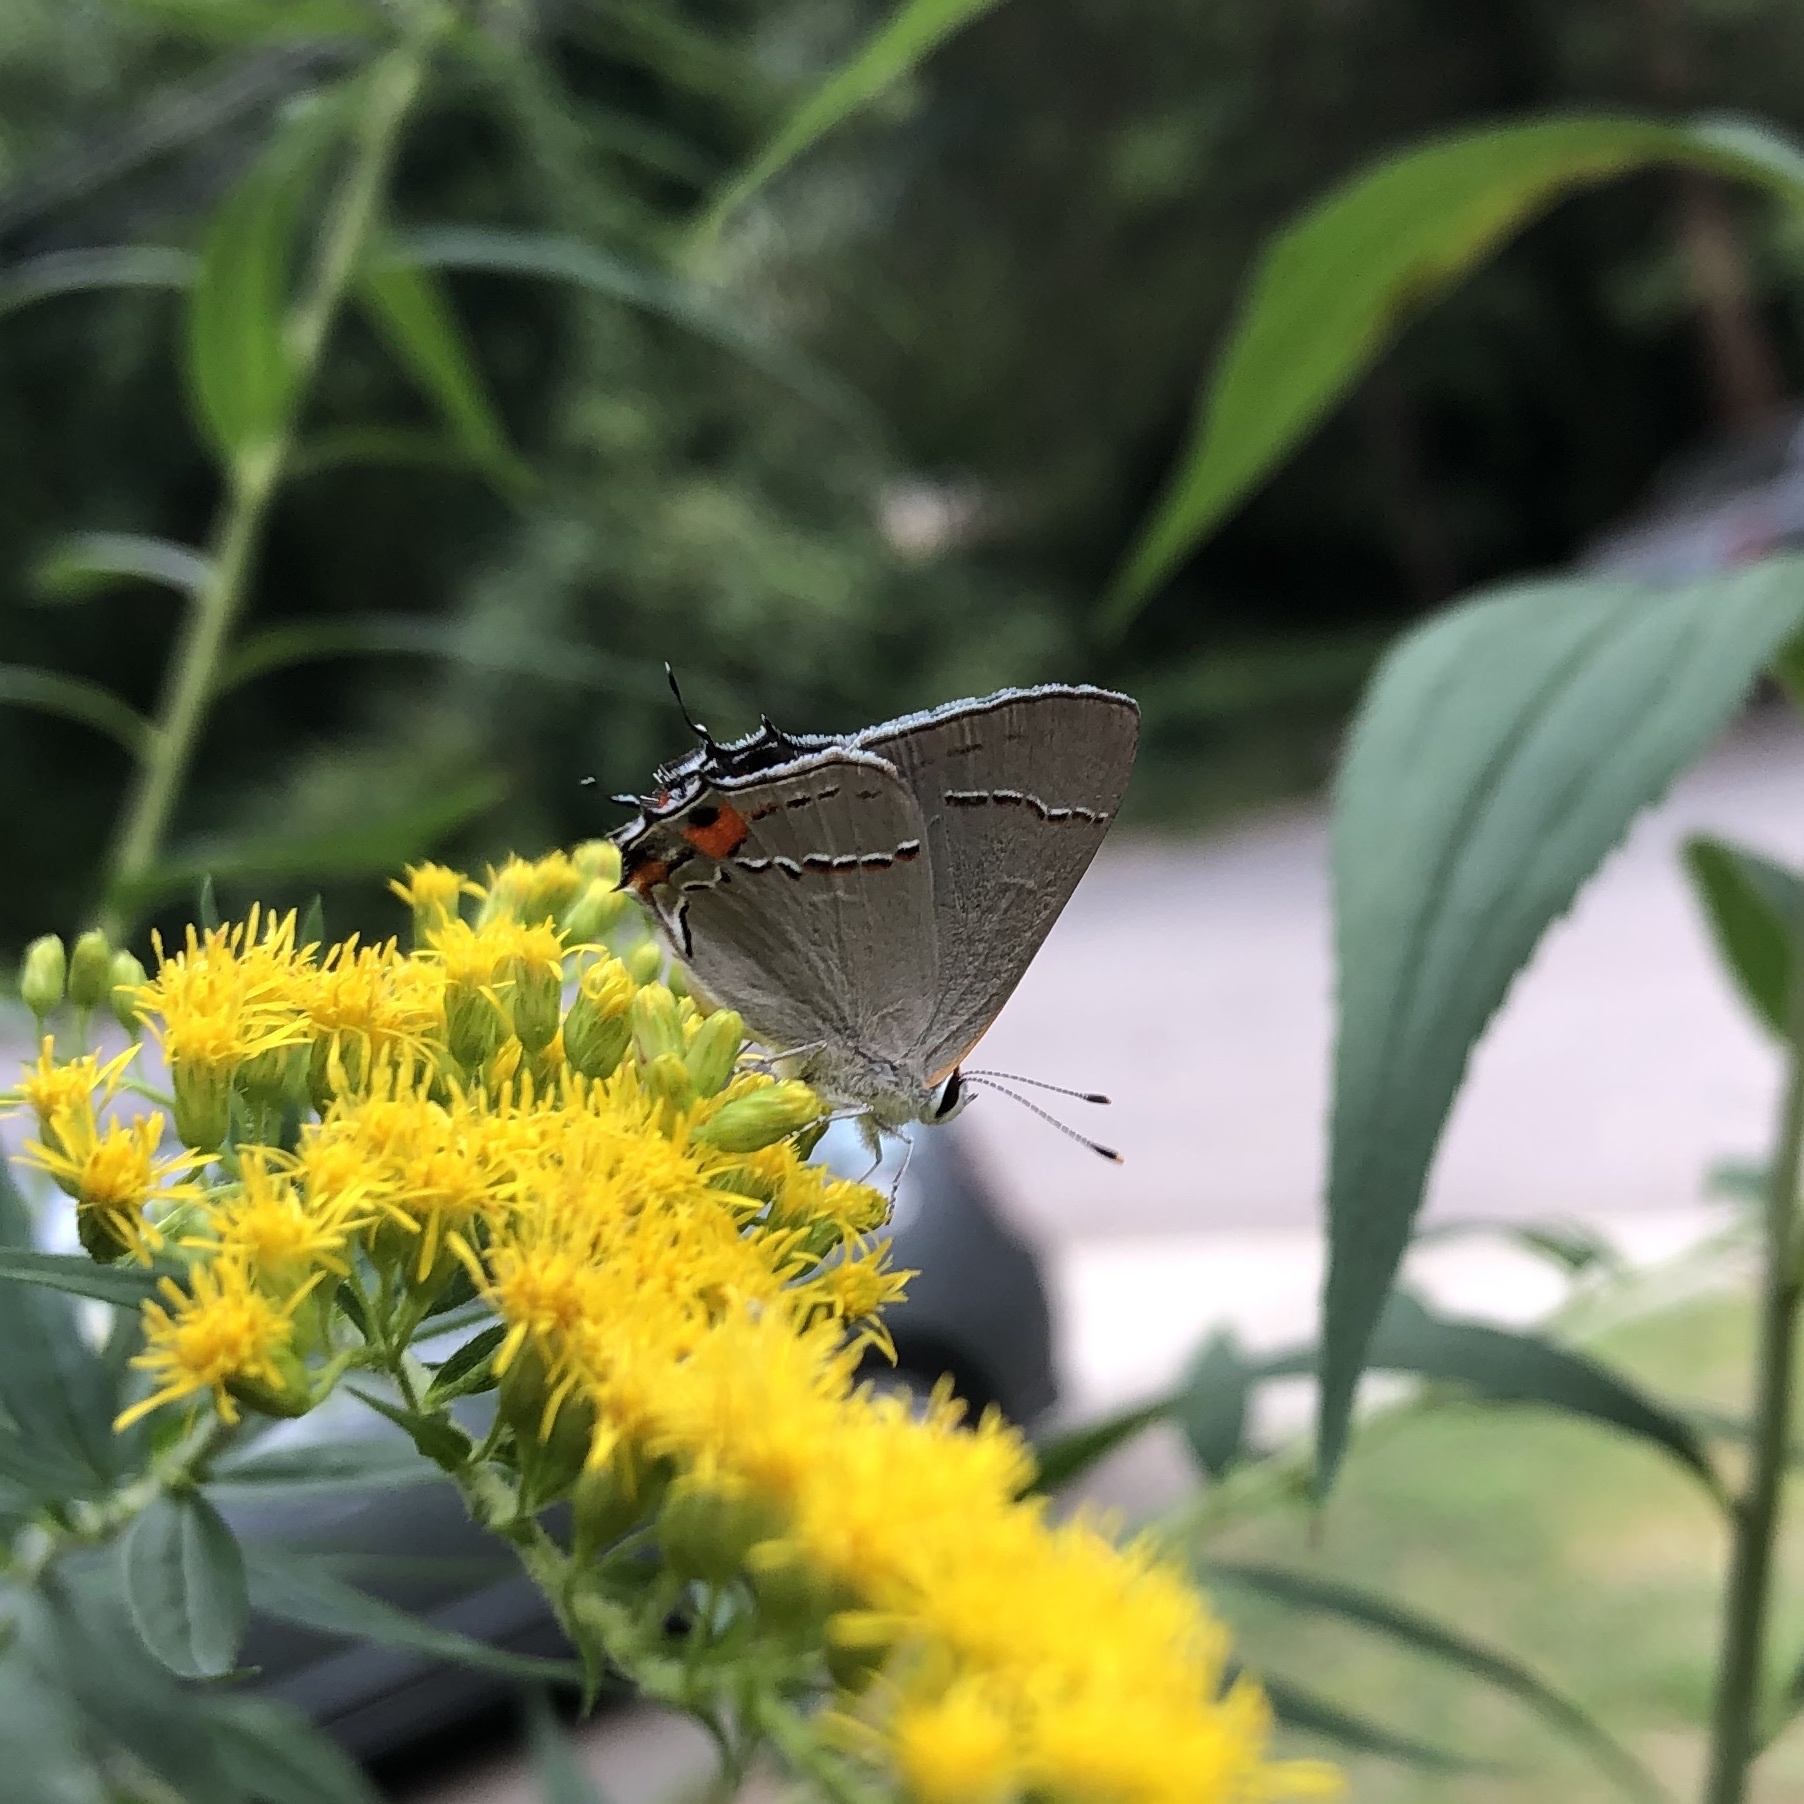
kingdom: Animalia
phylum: Arthropoda
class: Insecta
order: Lepidoptera
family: Lycaenidae
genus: Strymon
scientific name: Strymon melinus
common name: Gray hairstreak
